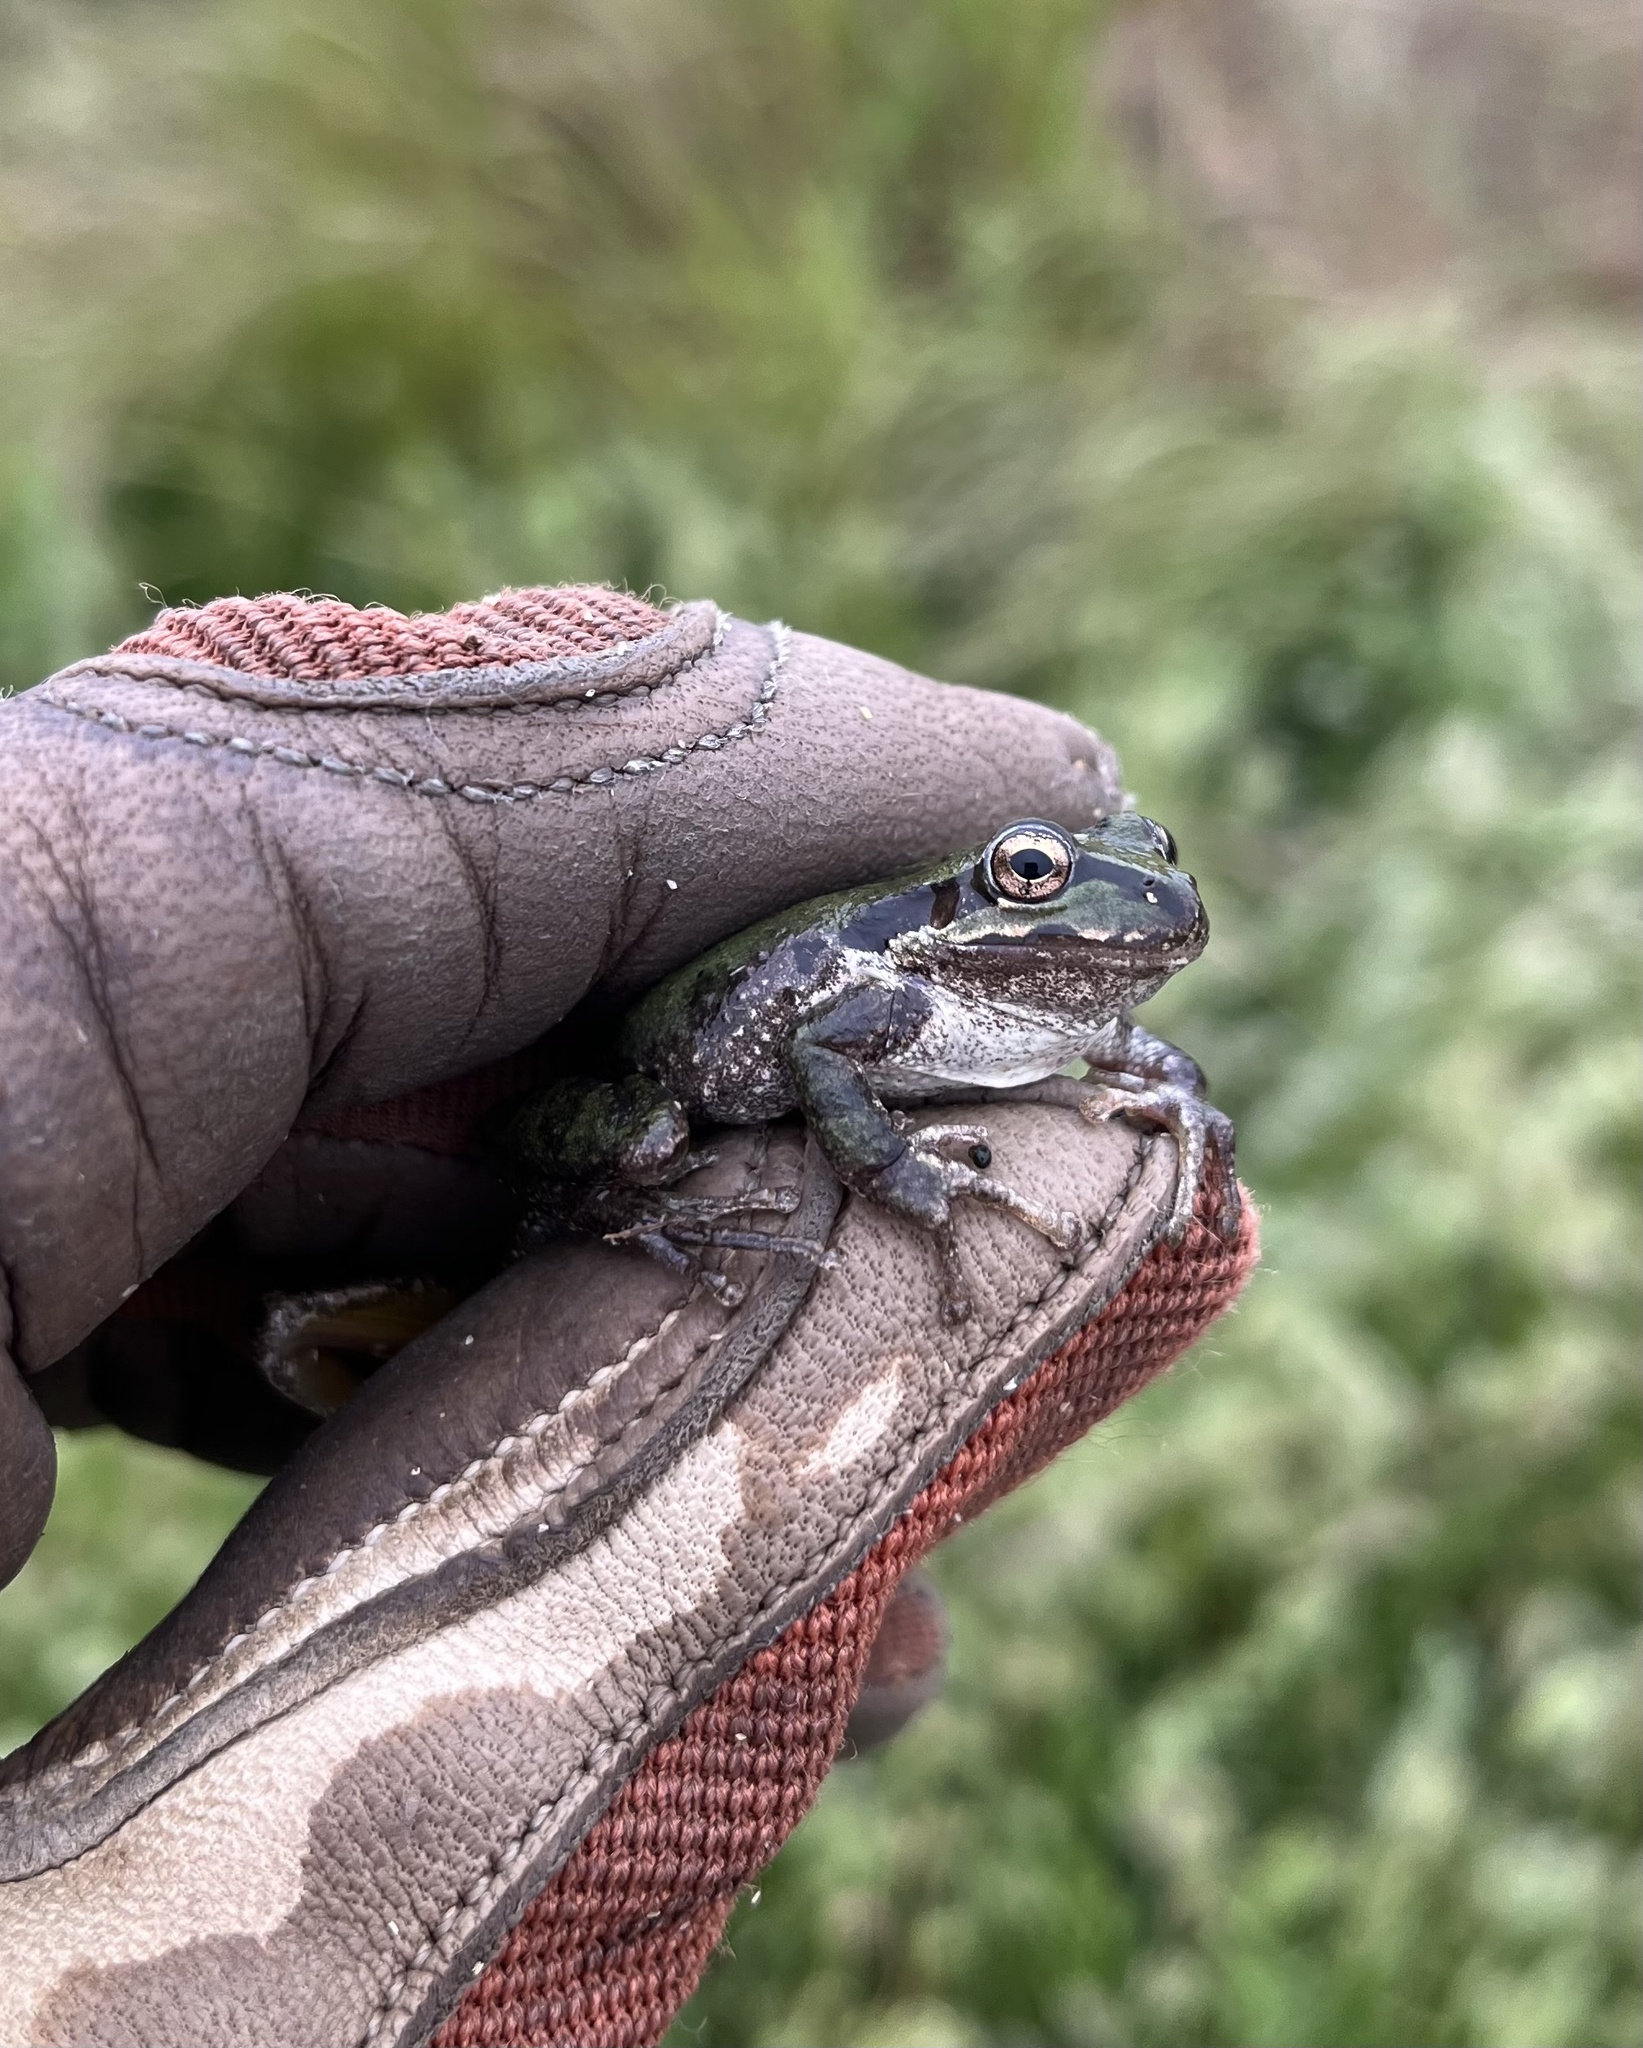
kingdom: Animalia
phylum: Chordata
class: Amphibia
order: Anura
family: Hylidae
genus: Pseudacris
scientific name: Pseudacris regilla
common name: Pacific chorus frog
